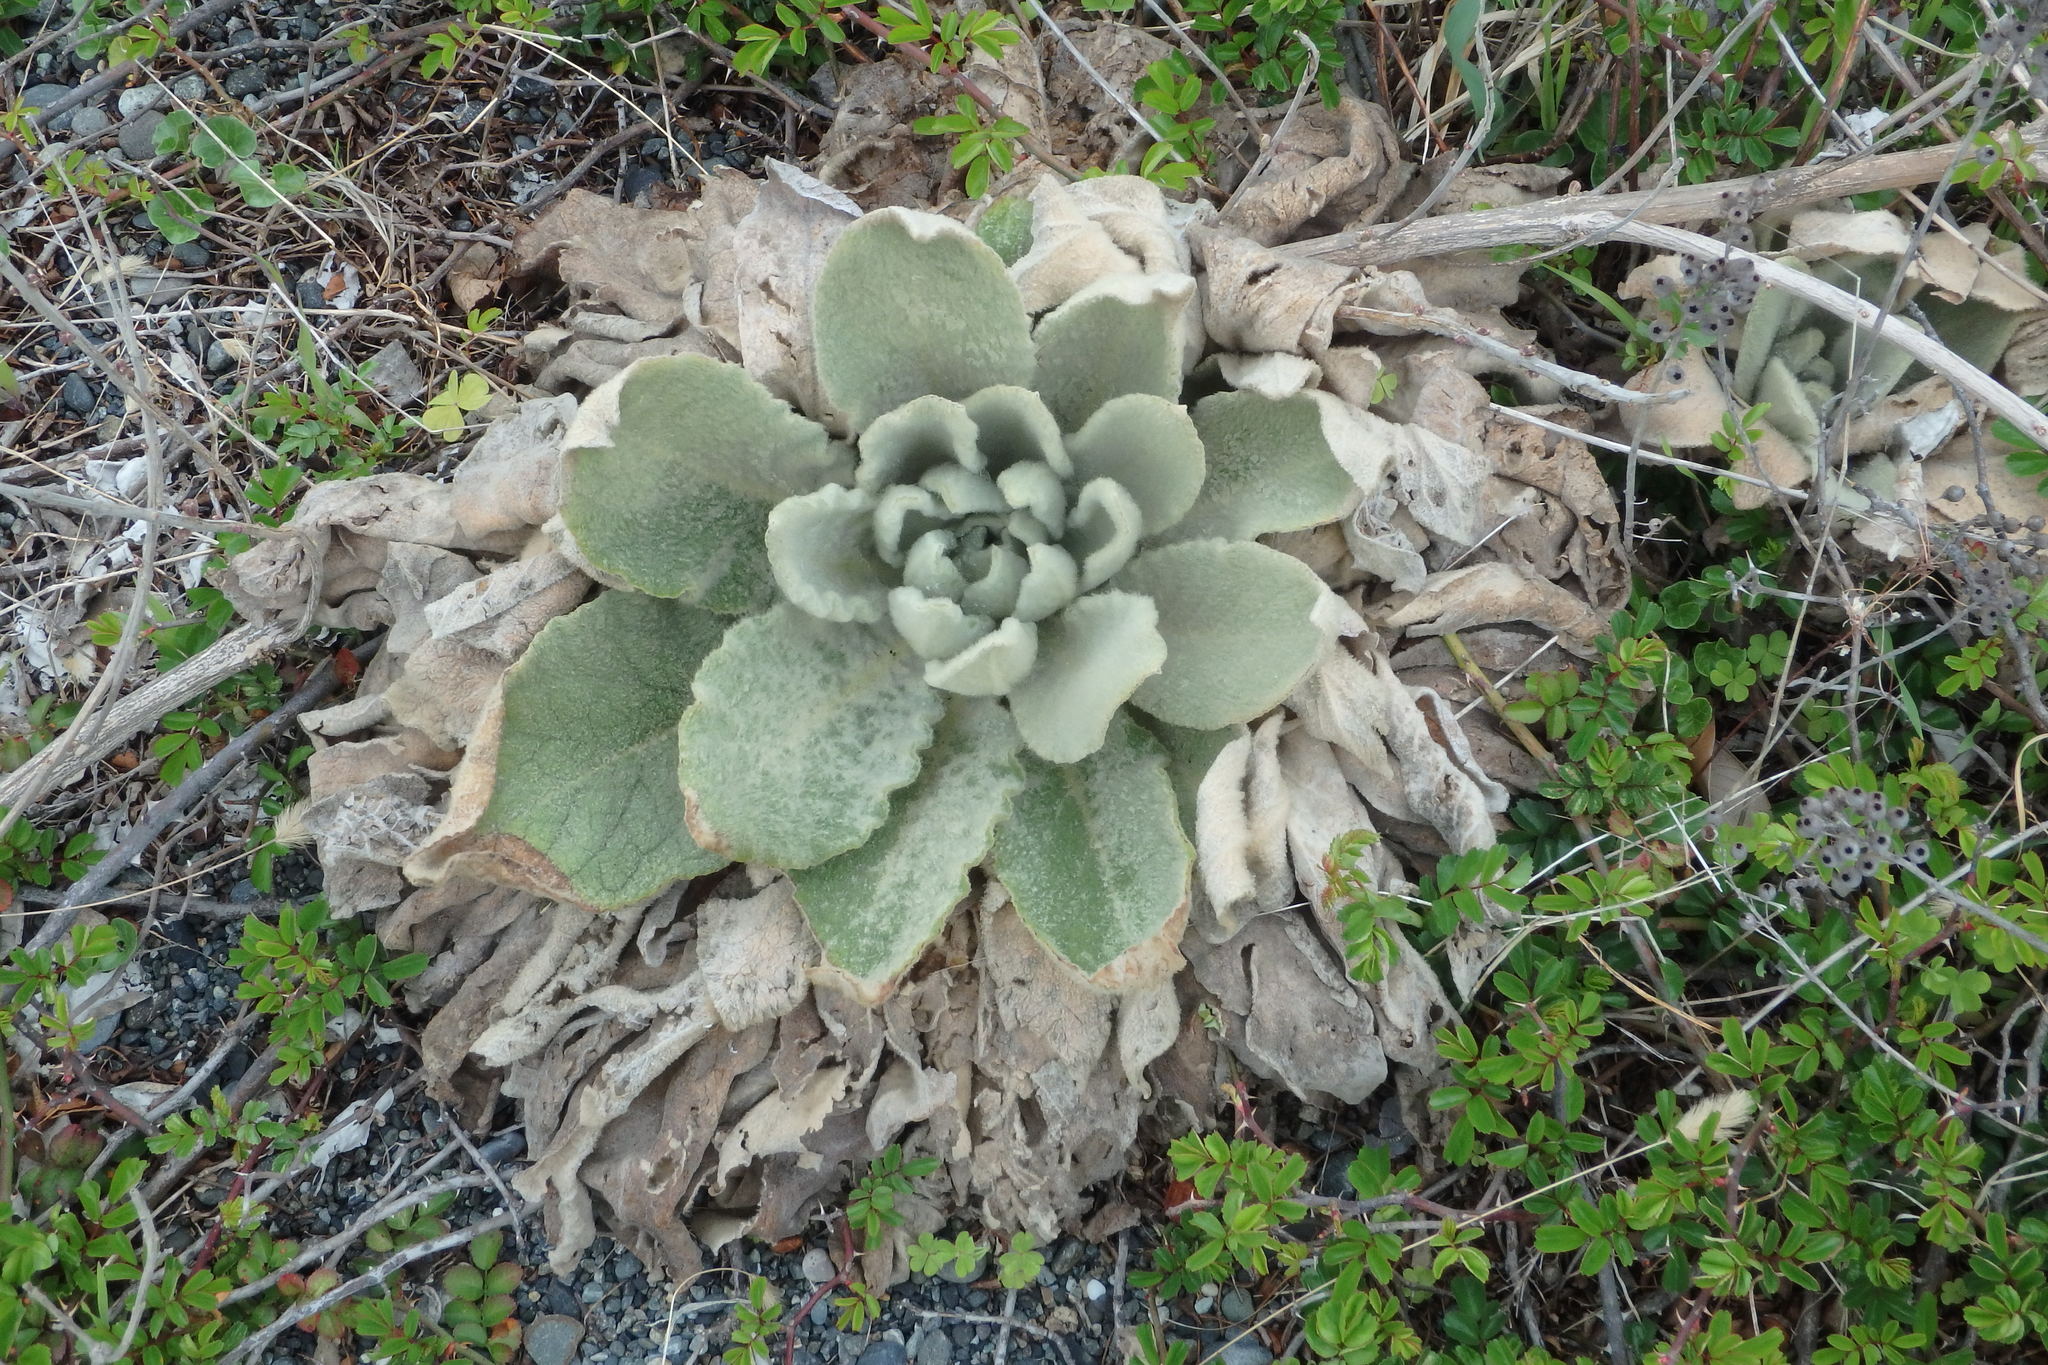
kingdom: Plantae
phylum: Tracheophyta
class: Magnoliopsida
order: Lamiales
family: Scrophulariaceae
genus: Verbascum
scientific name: Verbascum thapsus
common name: Common mullein
